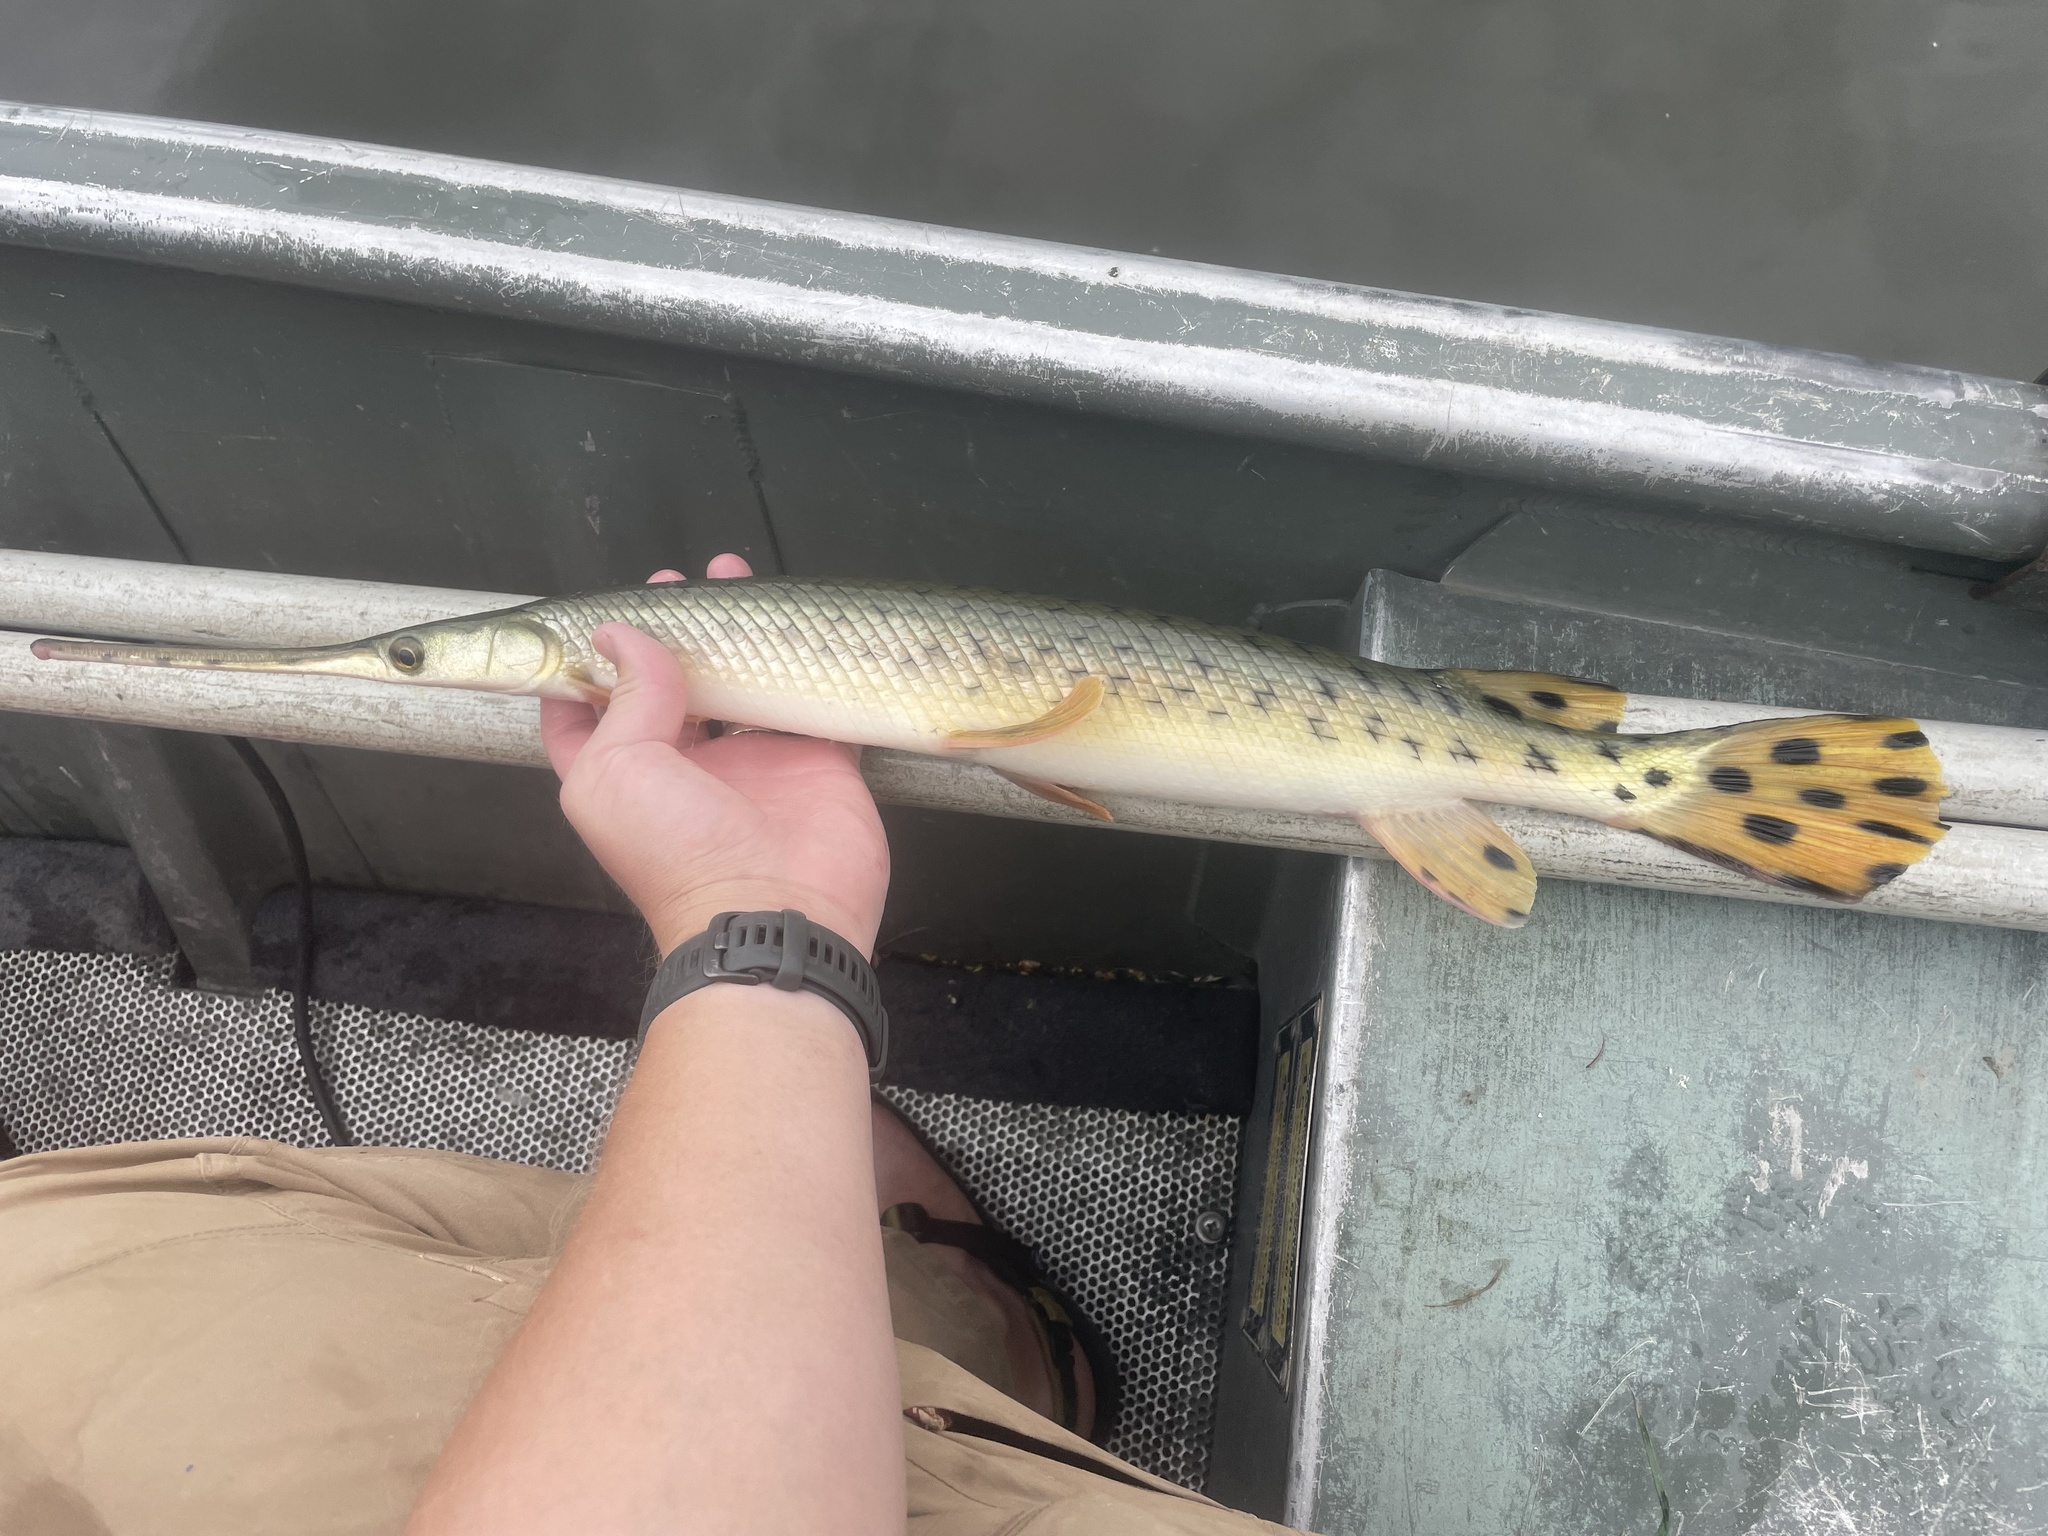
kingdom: Animalia
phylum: Chordata
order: Lepisosteiformes
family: Lepisosteidae
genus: Lepisosteus
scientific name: Lepisosteus osseus
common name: Longnose gar
